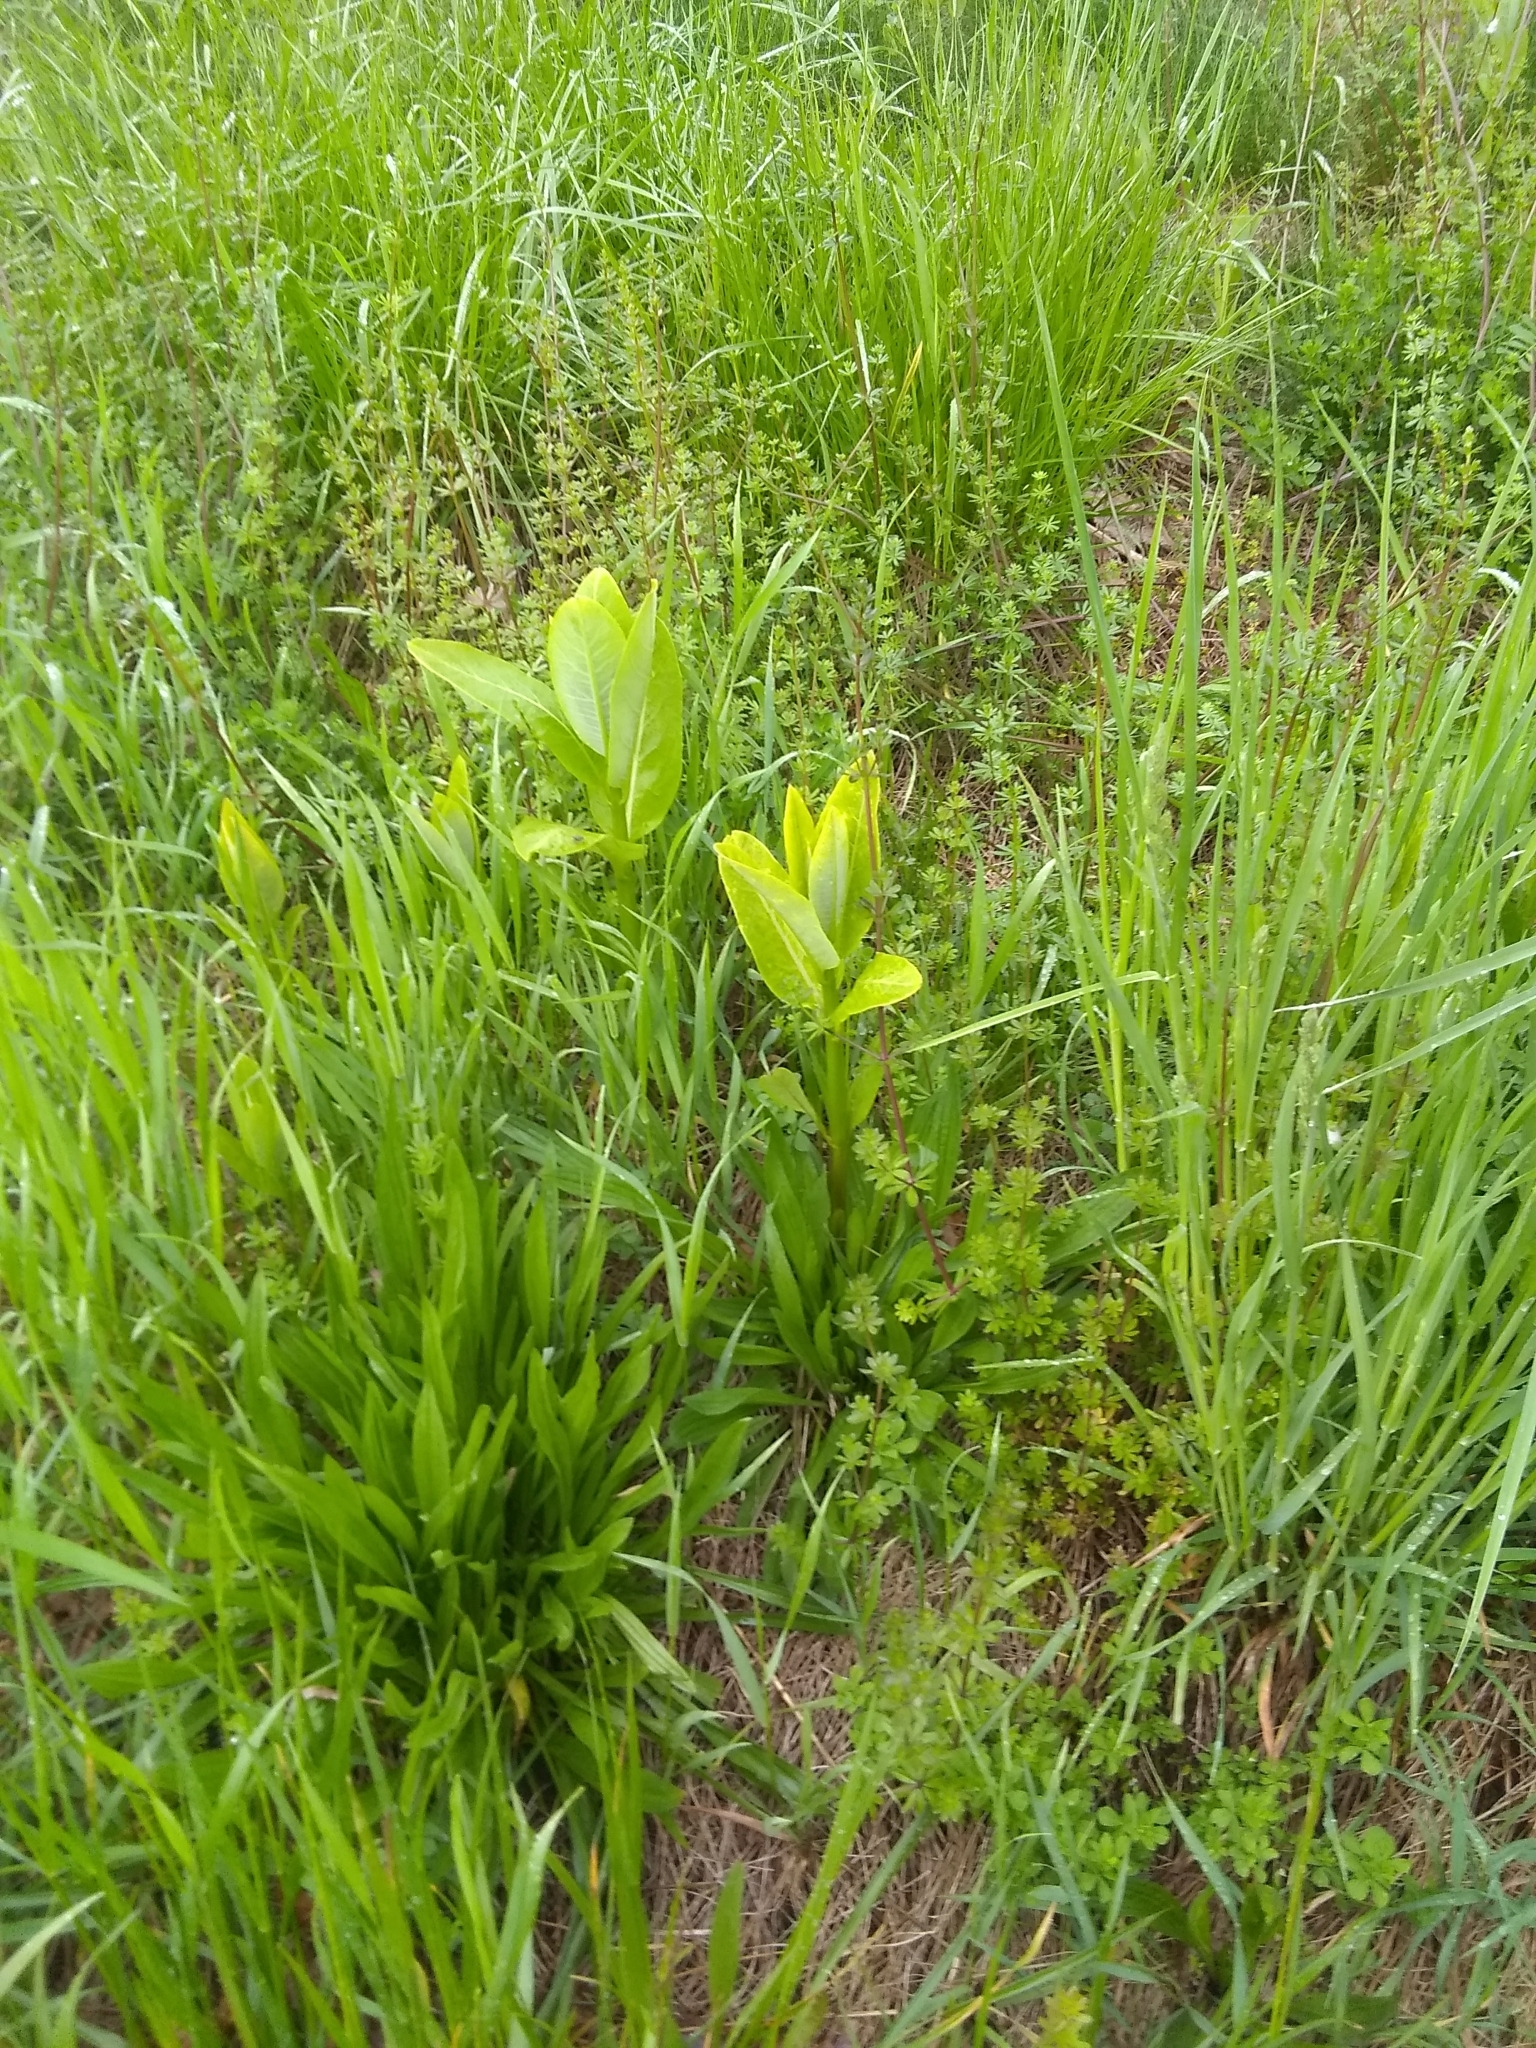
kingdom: Plantae
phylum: Tracheophyta
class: Magnoliopsida
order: Gentianales
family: Apocynaceae
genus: Asclepias
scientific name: Asclepias syriaca
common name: Common milkweed
